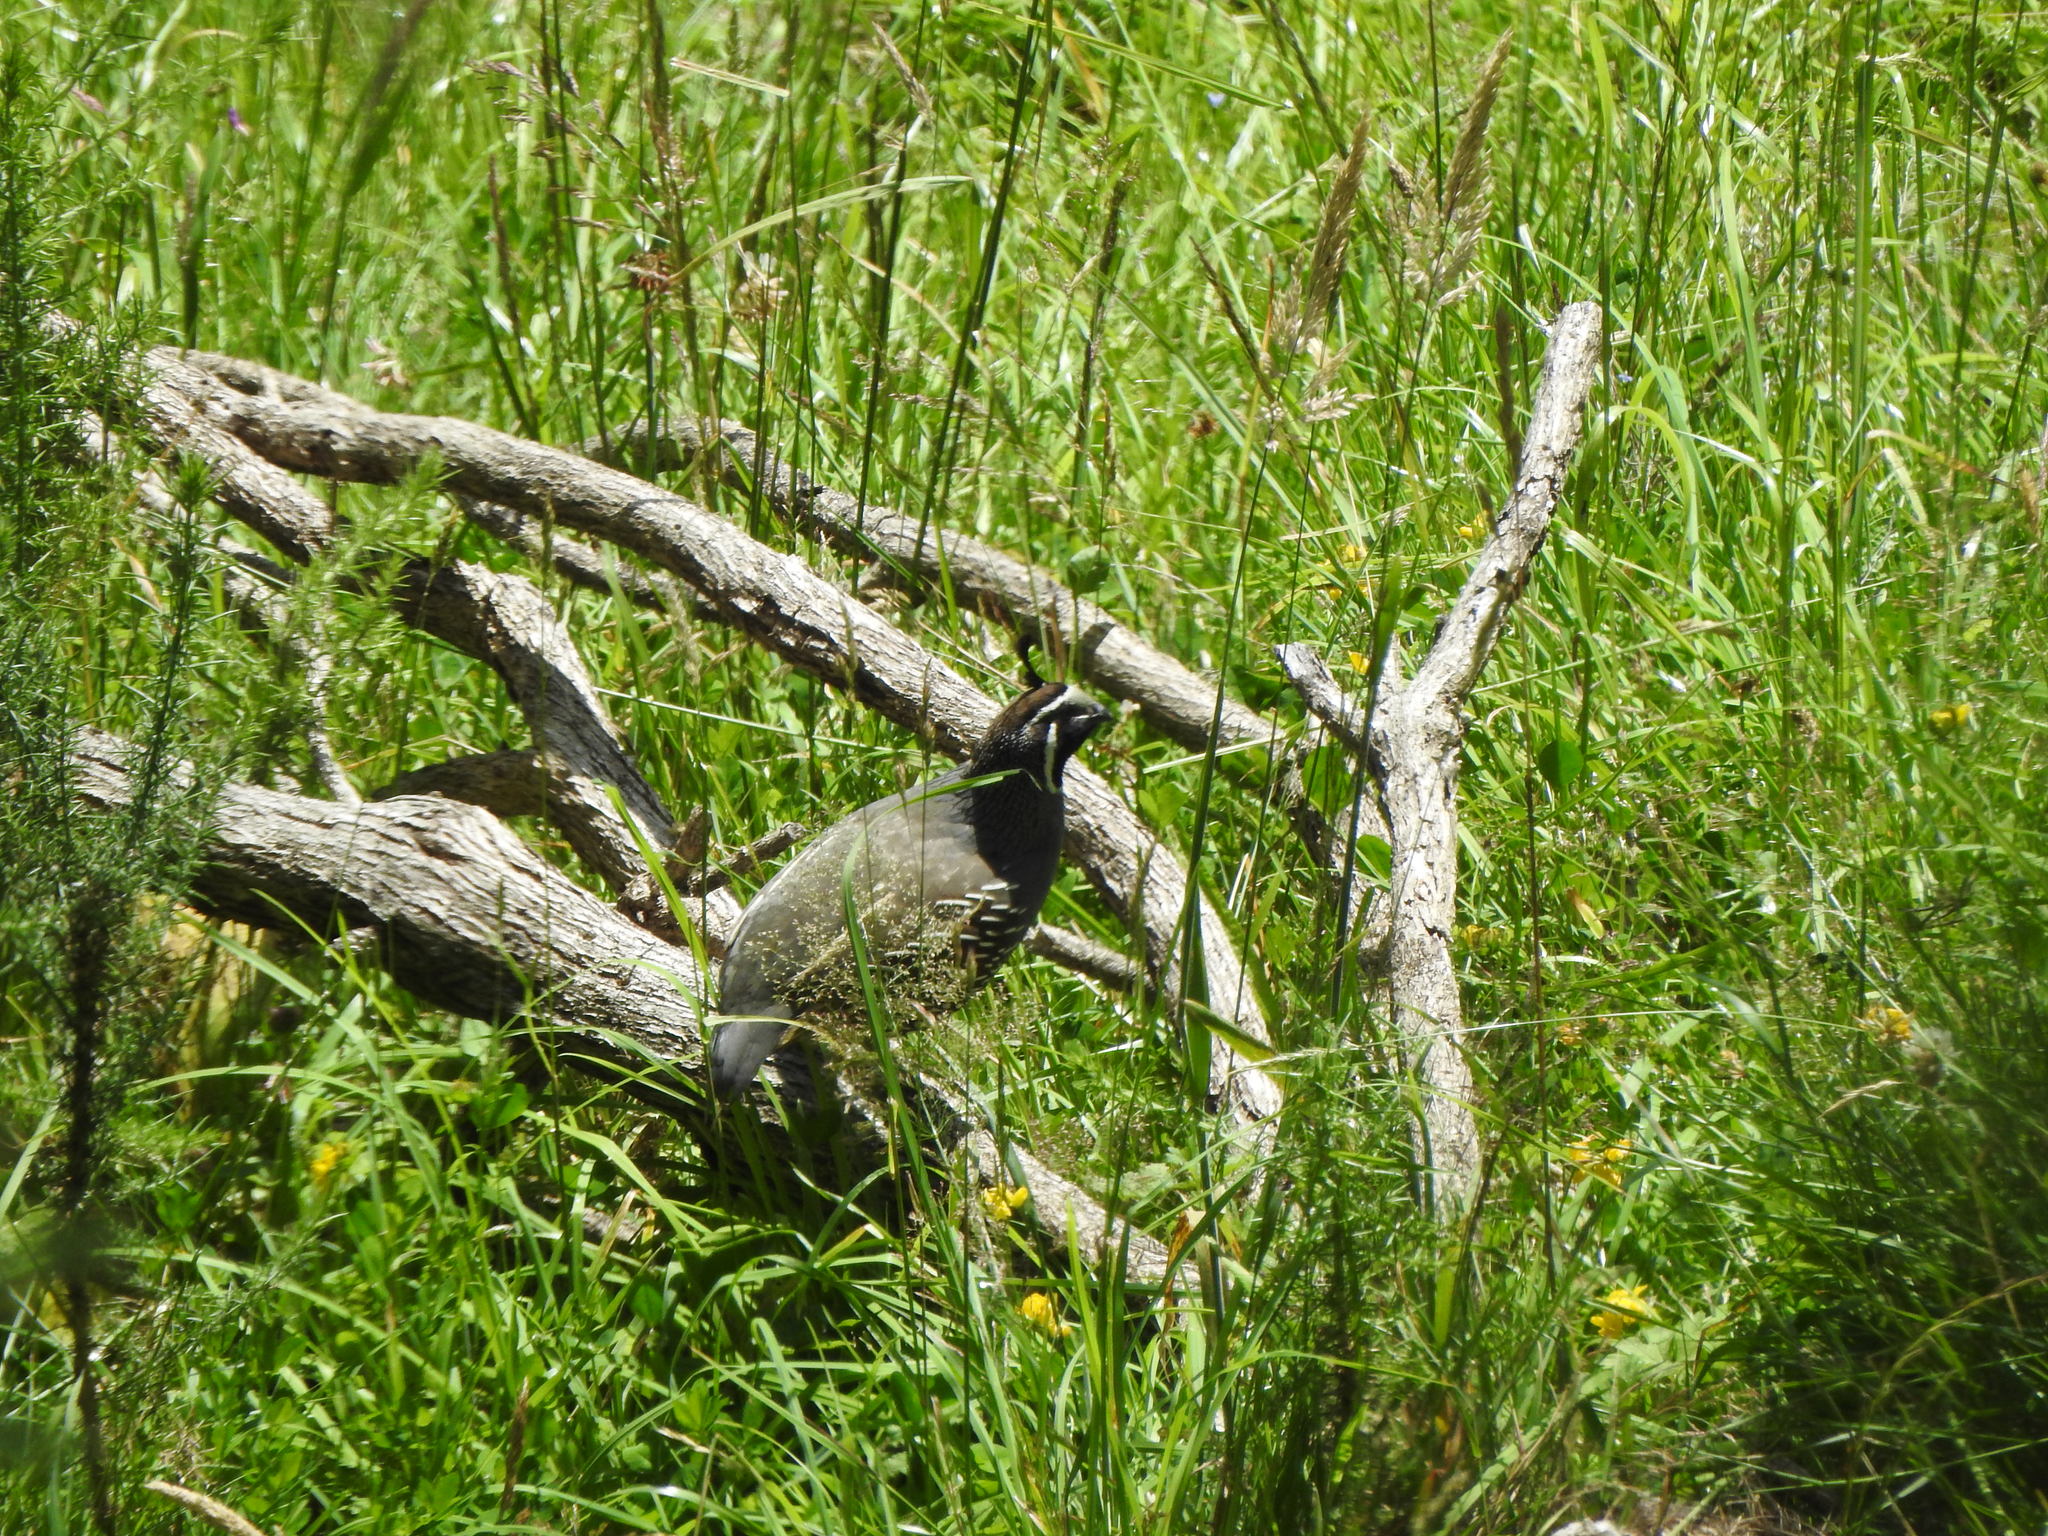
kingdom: Animalia
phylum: Chordata
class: Aves
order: Galliformes
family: Odontophoridae
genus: Callipepla
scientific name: Callipepla californica
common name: California quail
